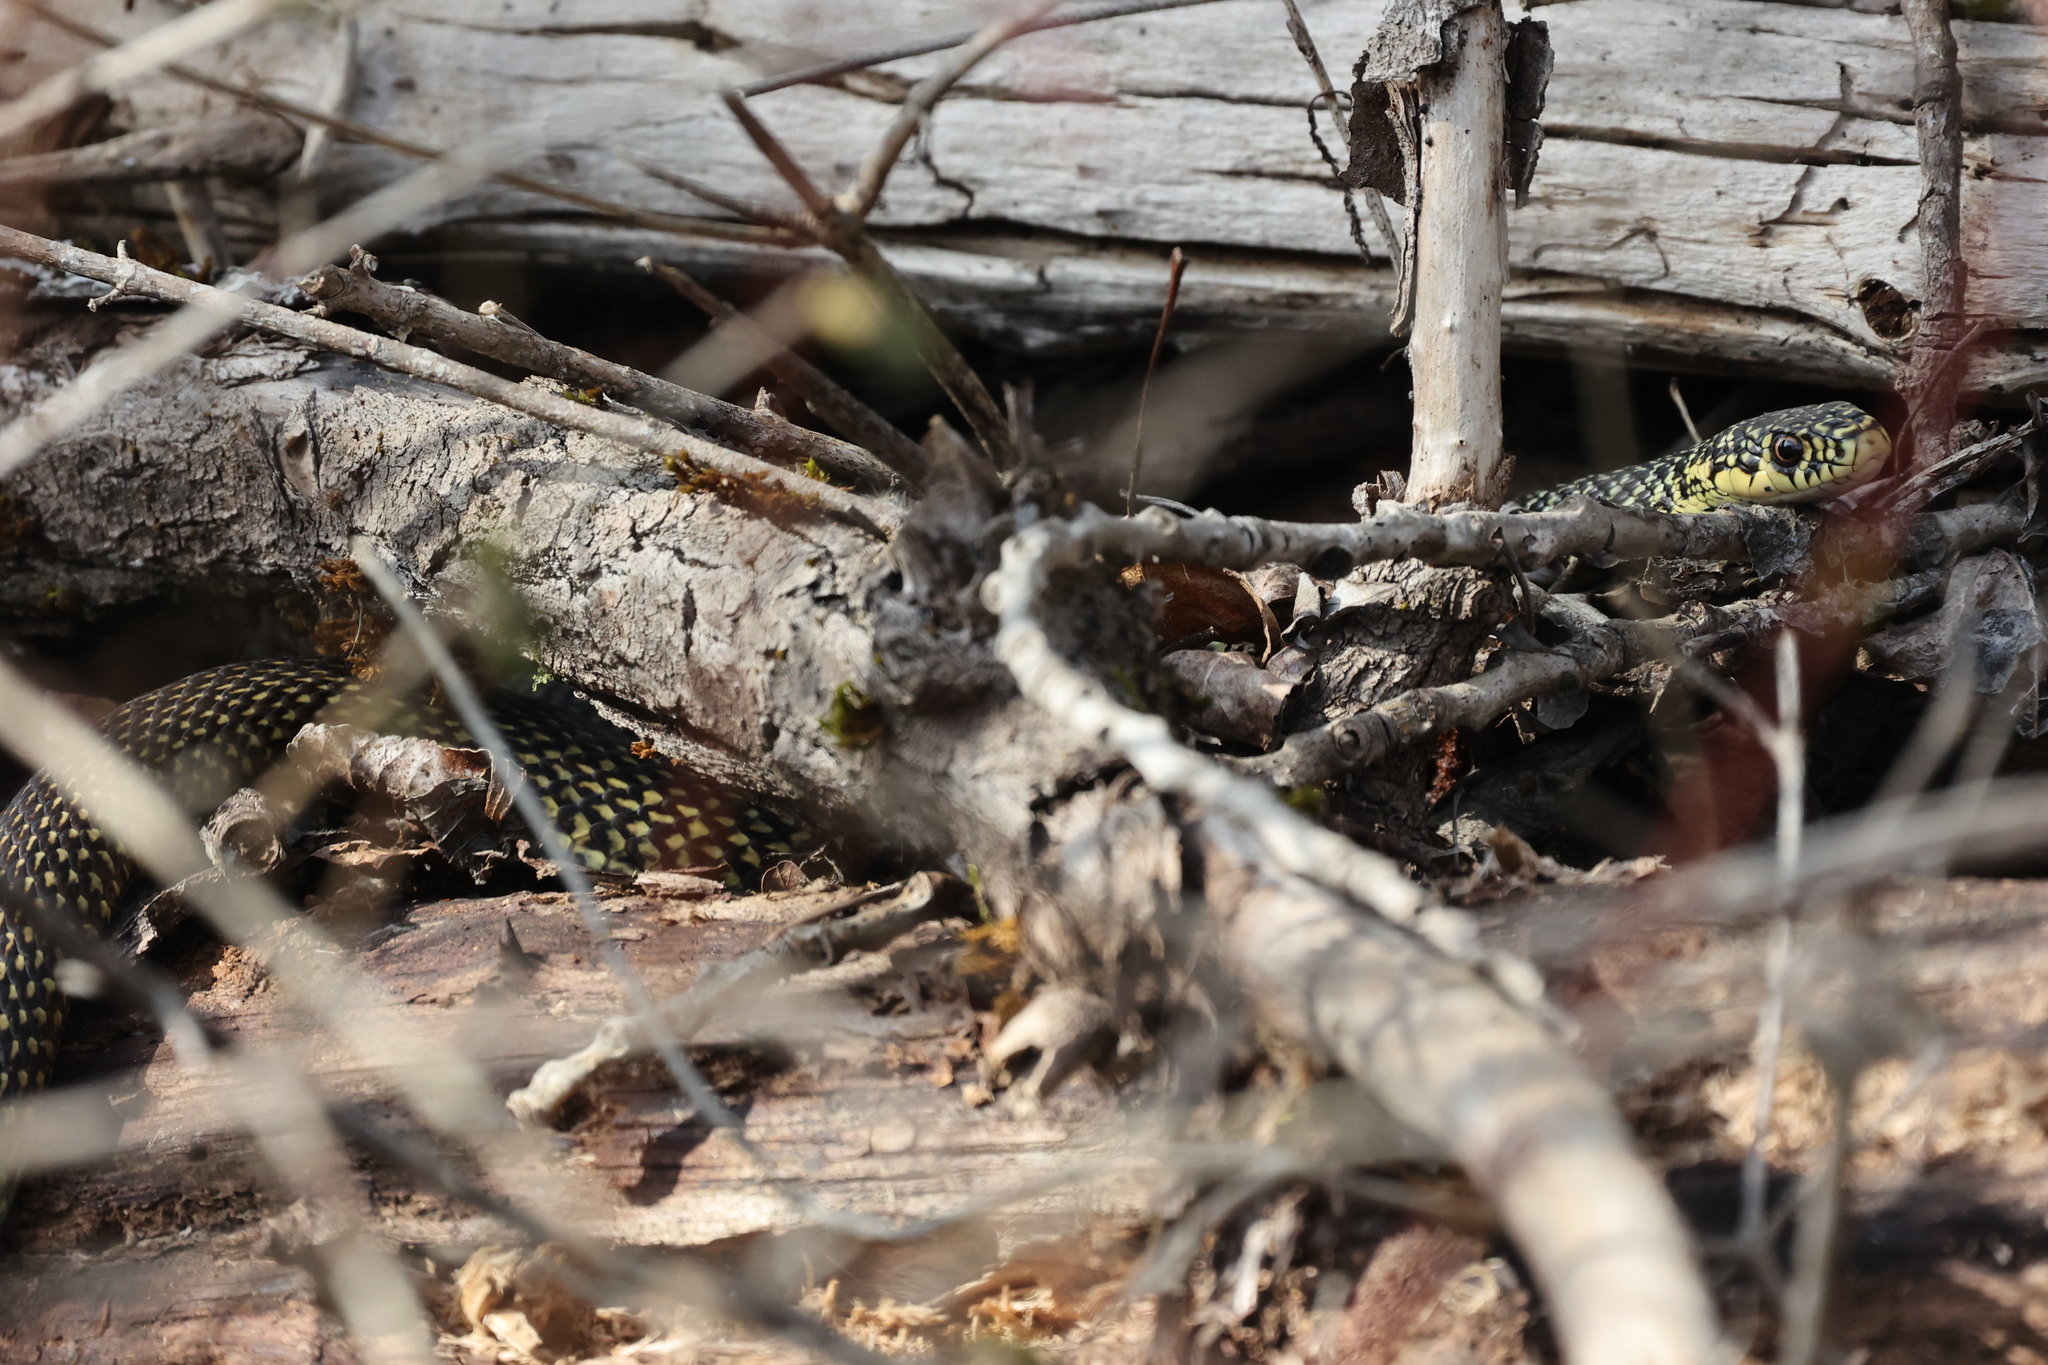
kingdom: Animalia
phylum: Chordata
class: Squamata
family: Colubridae
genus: Hierophis
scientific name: Hierophis viridiflavus
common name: Green whip snake
